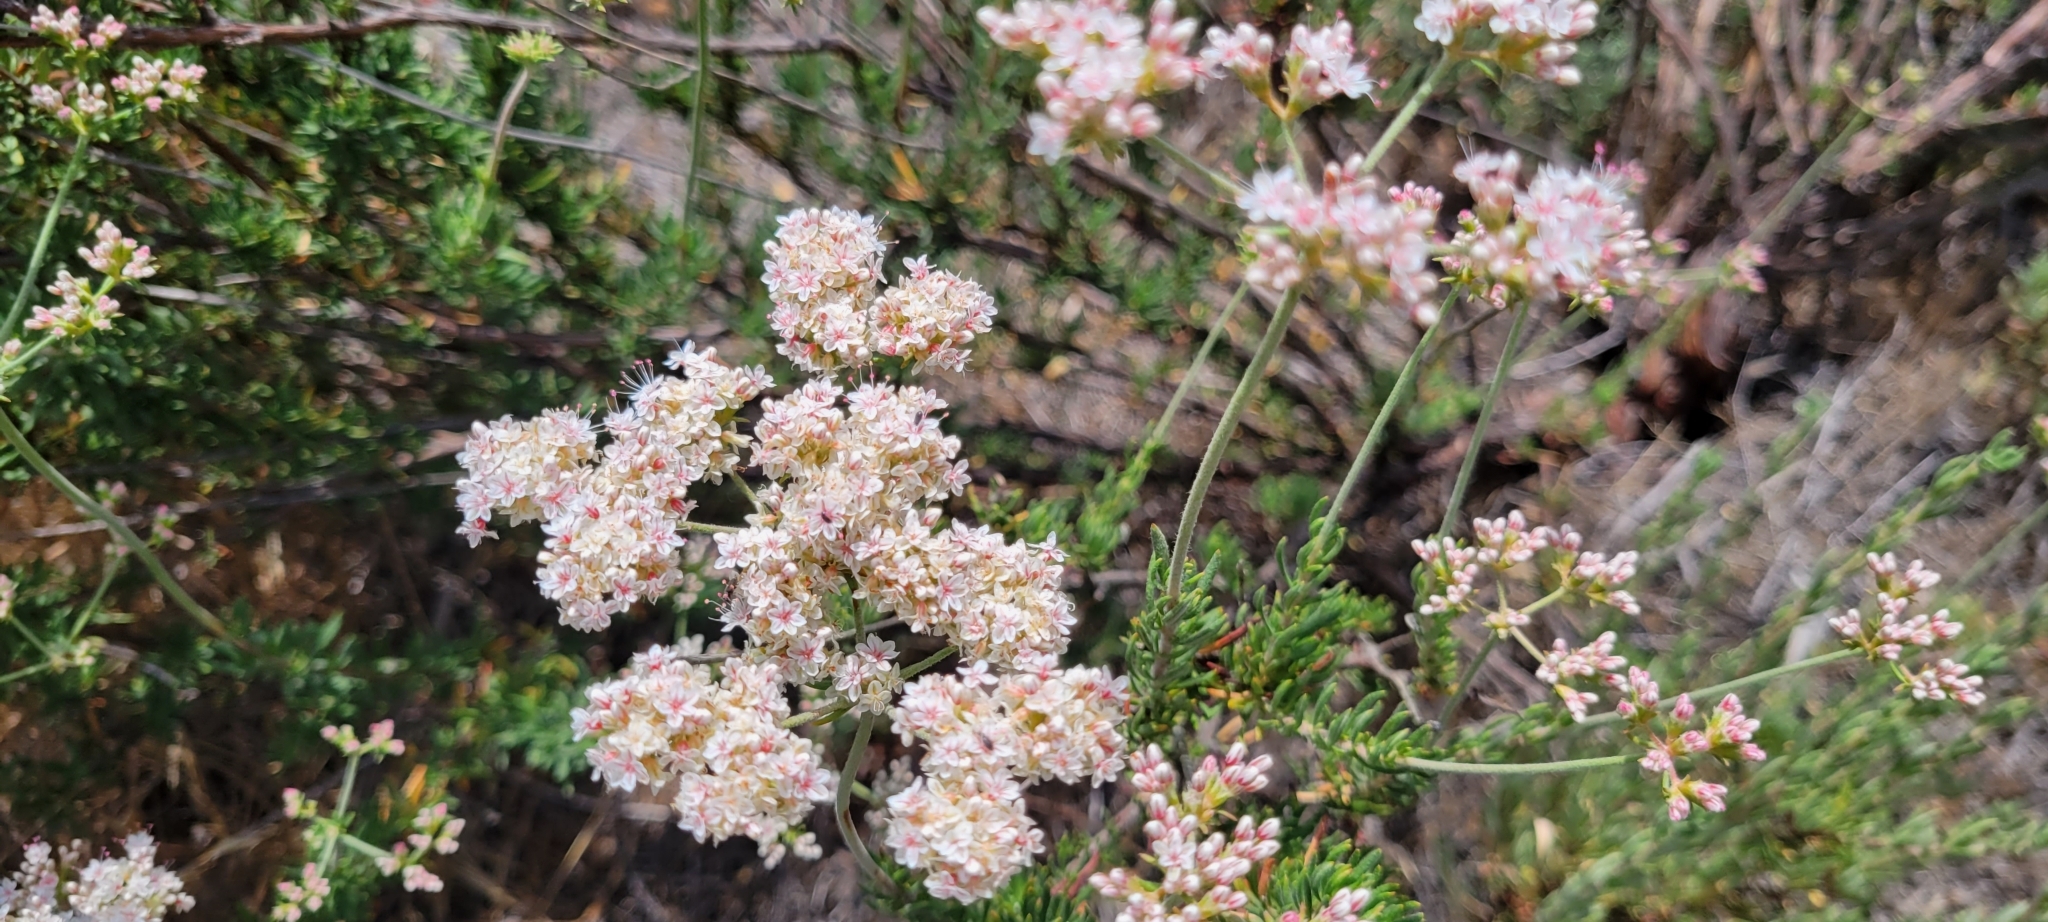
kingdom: Plantae
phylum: Tracheophyta
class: Magnoliopsida
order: Caryophyllales
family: Polygonaceae
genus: Eriogonum
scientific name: Eriogonum fasciculatum
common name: California wild buckwheat
